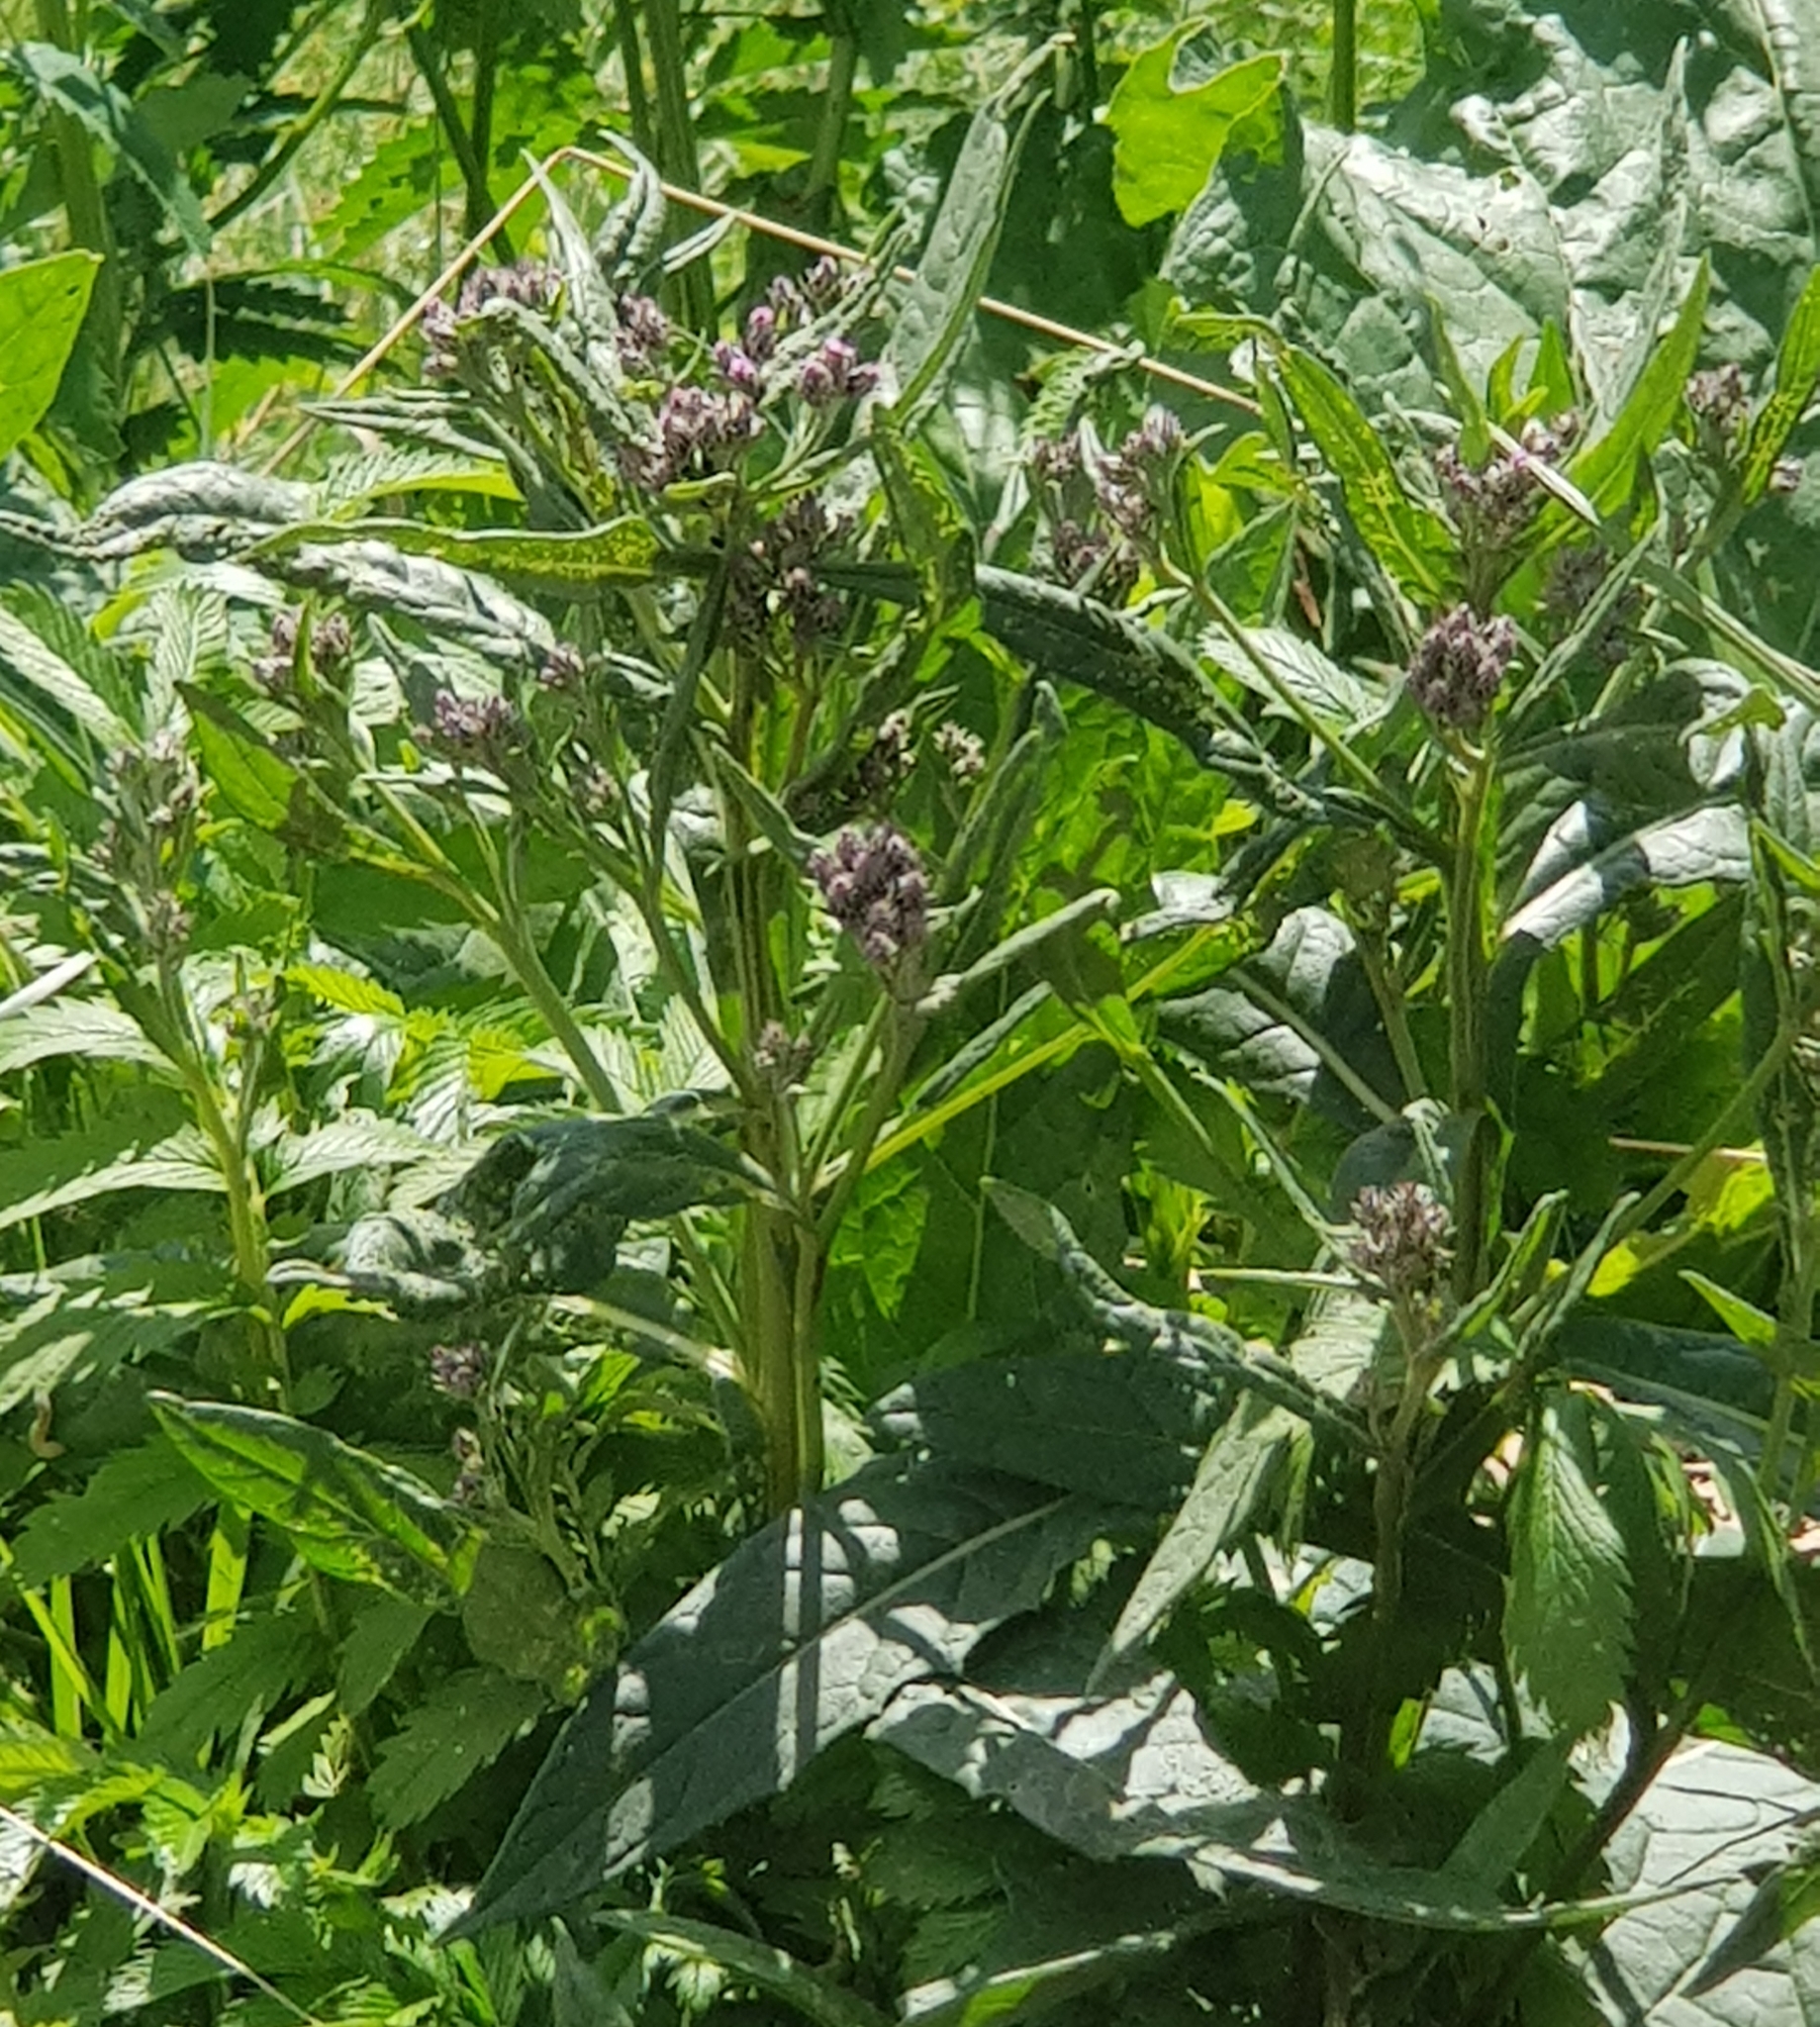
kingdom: Plantae
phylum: Tracheophyta
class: Magnoliopsida
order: Asterales
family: Asteraceae
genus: Saussurea
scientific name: Saussurea amara
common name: Alberta sawwort
